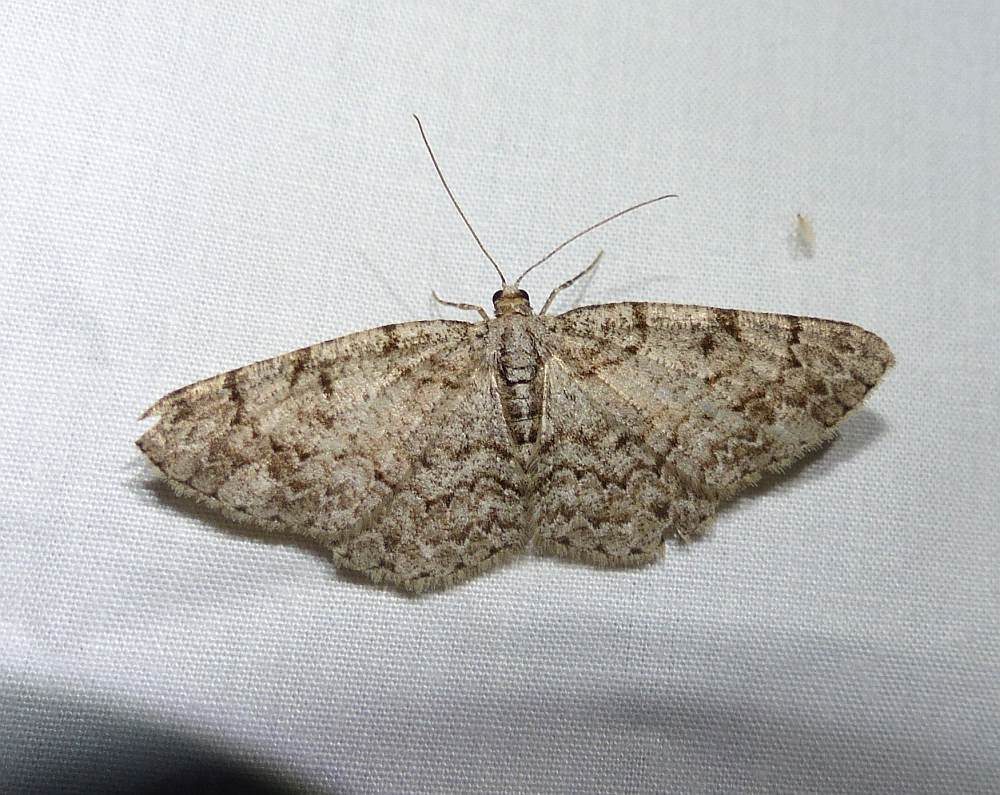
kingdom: Animalia
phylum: Arthropoda
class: Insecta
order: Lepidoptera
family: Geometridae
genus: Protoboarmia
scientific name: Protoboarmia porcelaria
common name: Porcelain gray
